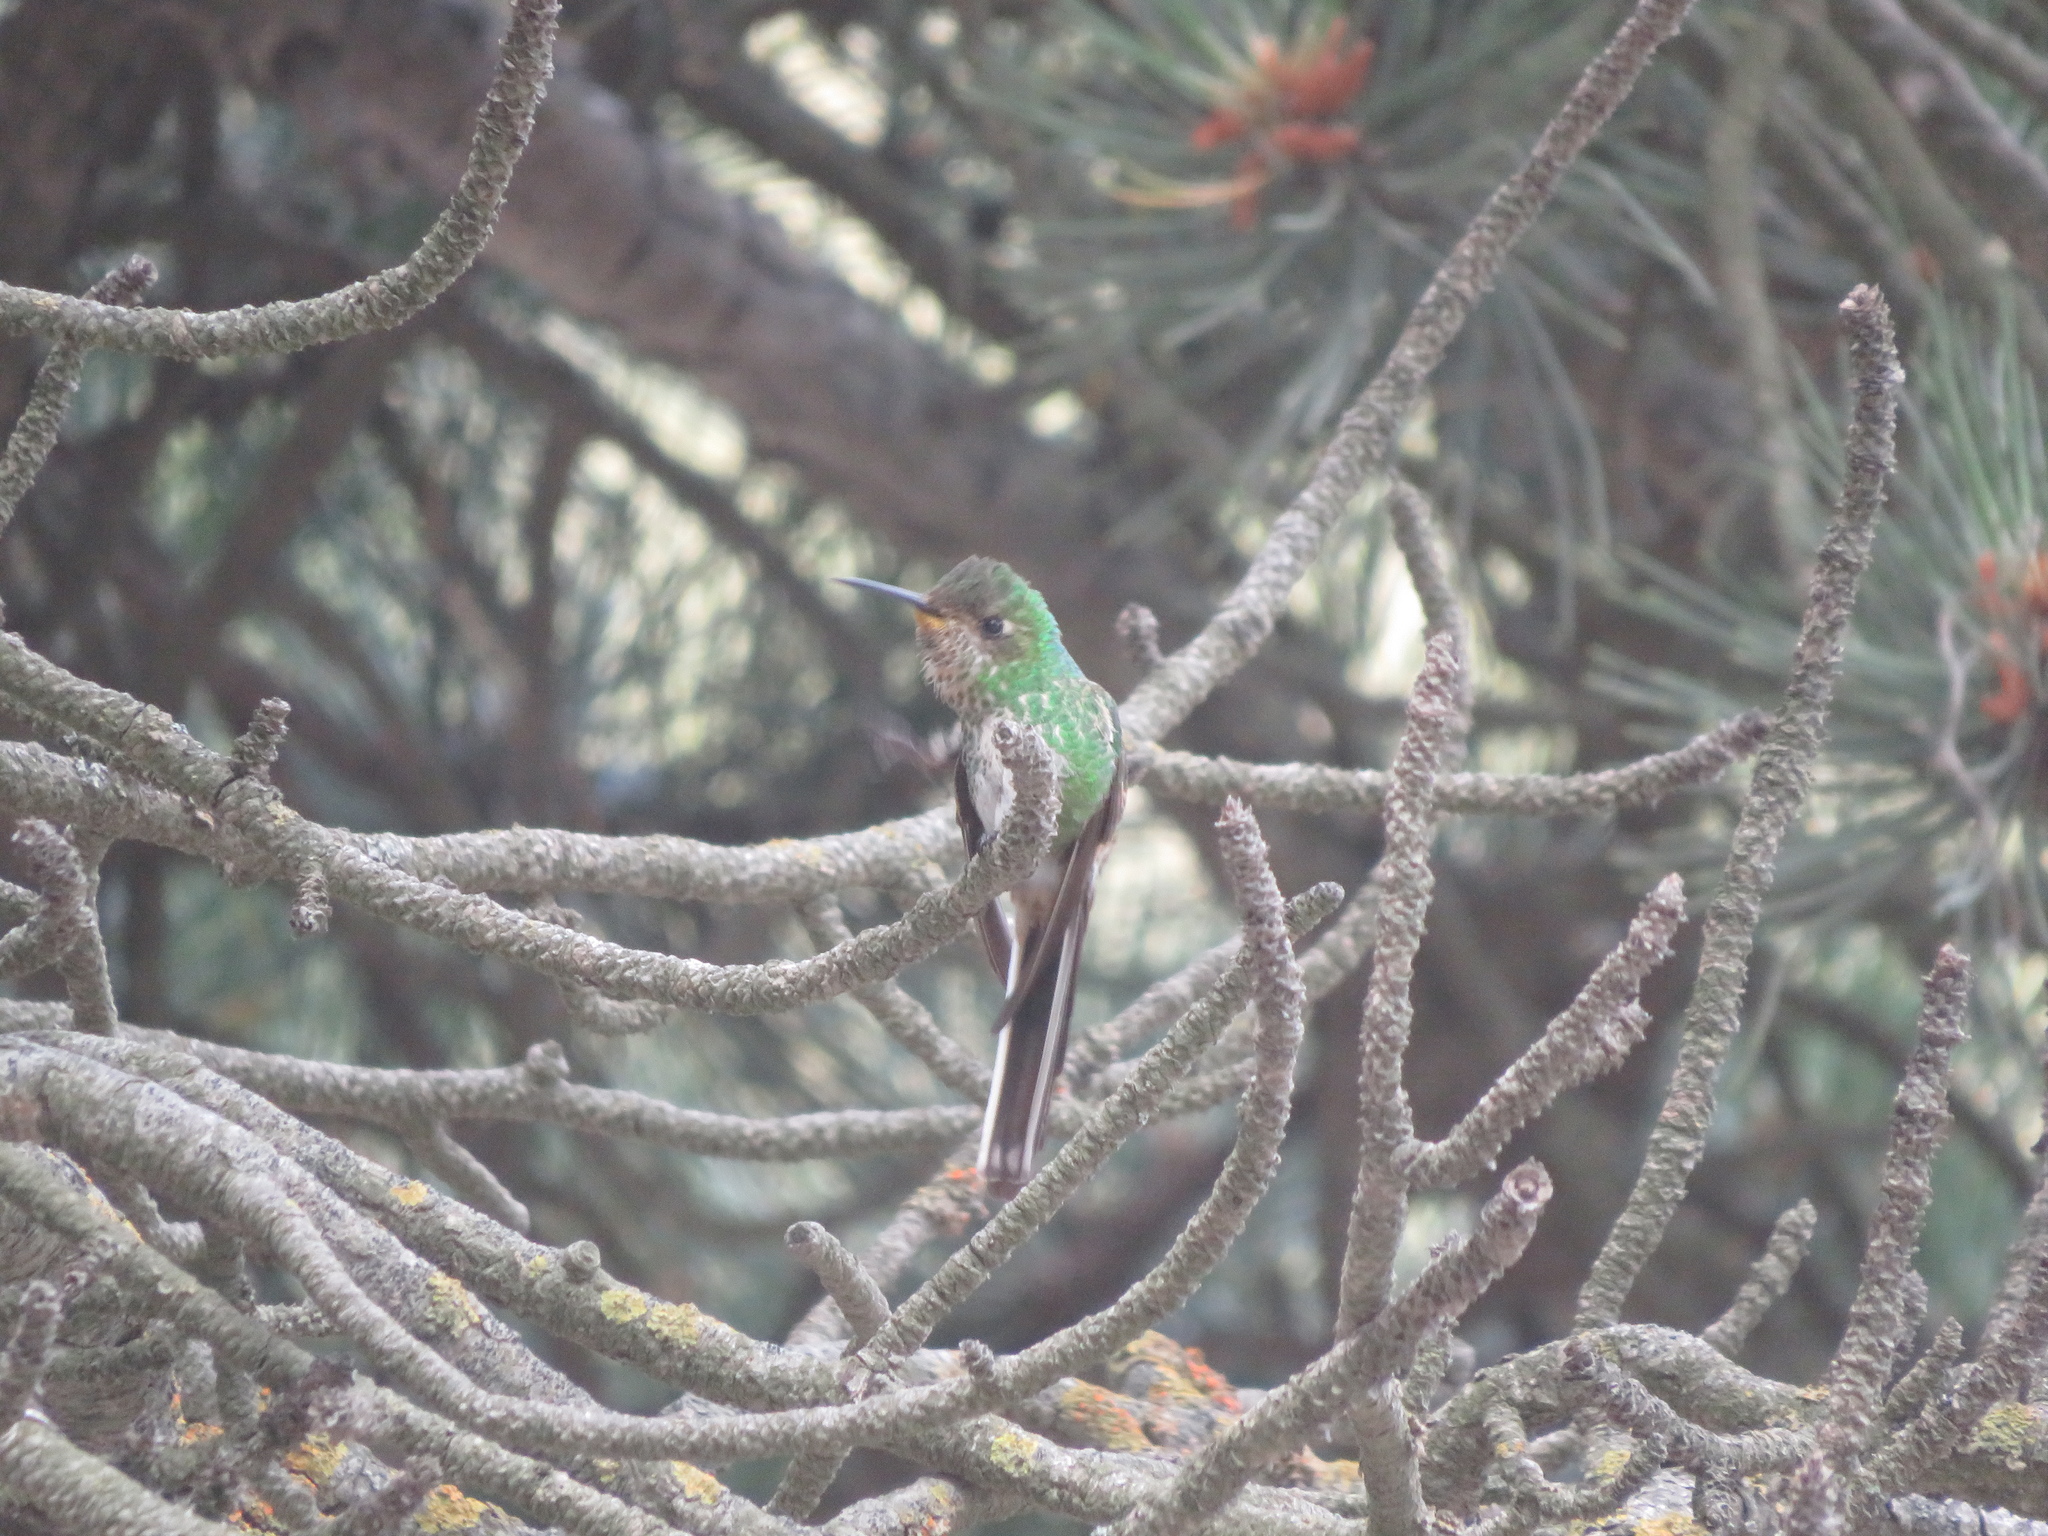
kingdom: Animalia
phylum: Chordata
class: Aves
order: Apodiformes
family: Trochilidae
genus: Sappho
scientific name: Sappho sparganurus
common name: Red-tailed comet
